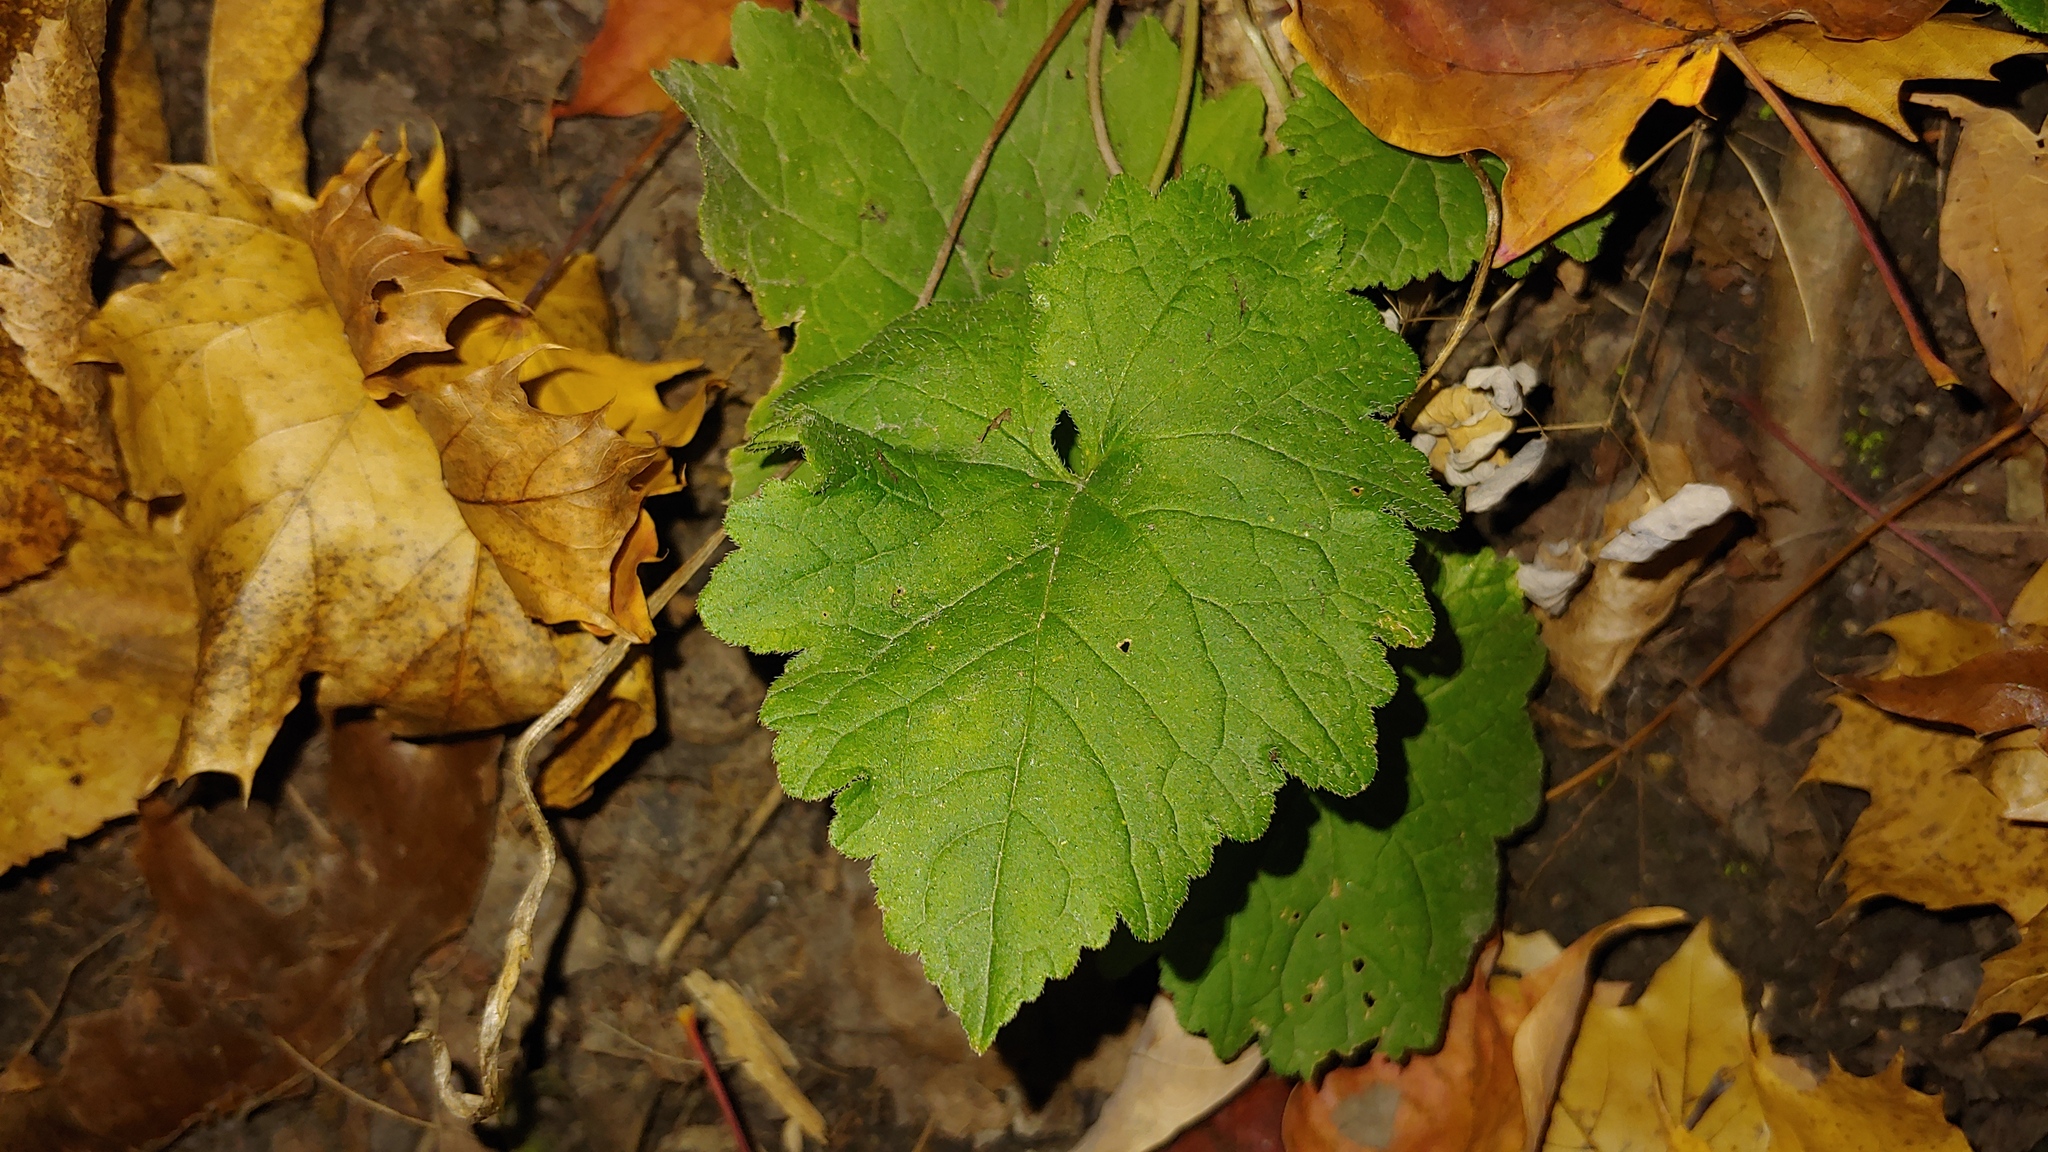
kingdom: Plantae
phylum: Tracheophyta
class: Magnoliopsida
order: Asterales
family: Campanulaceae
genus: Campanula
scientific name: Campanula trachelium
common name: Nettle-leaved bellflower
